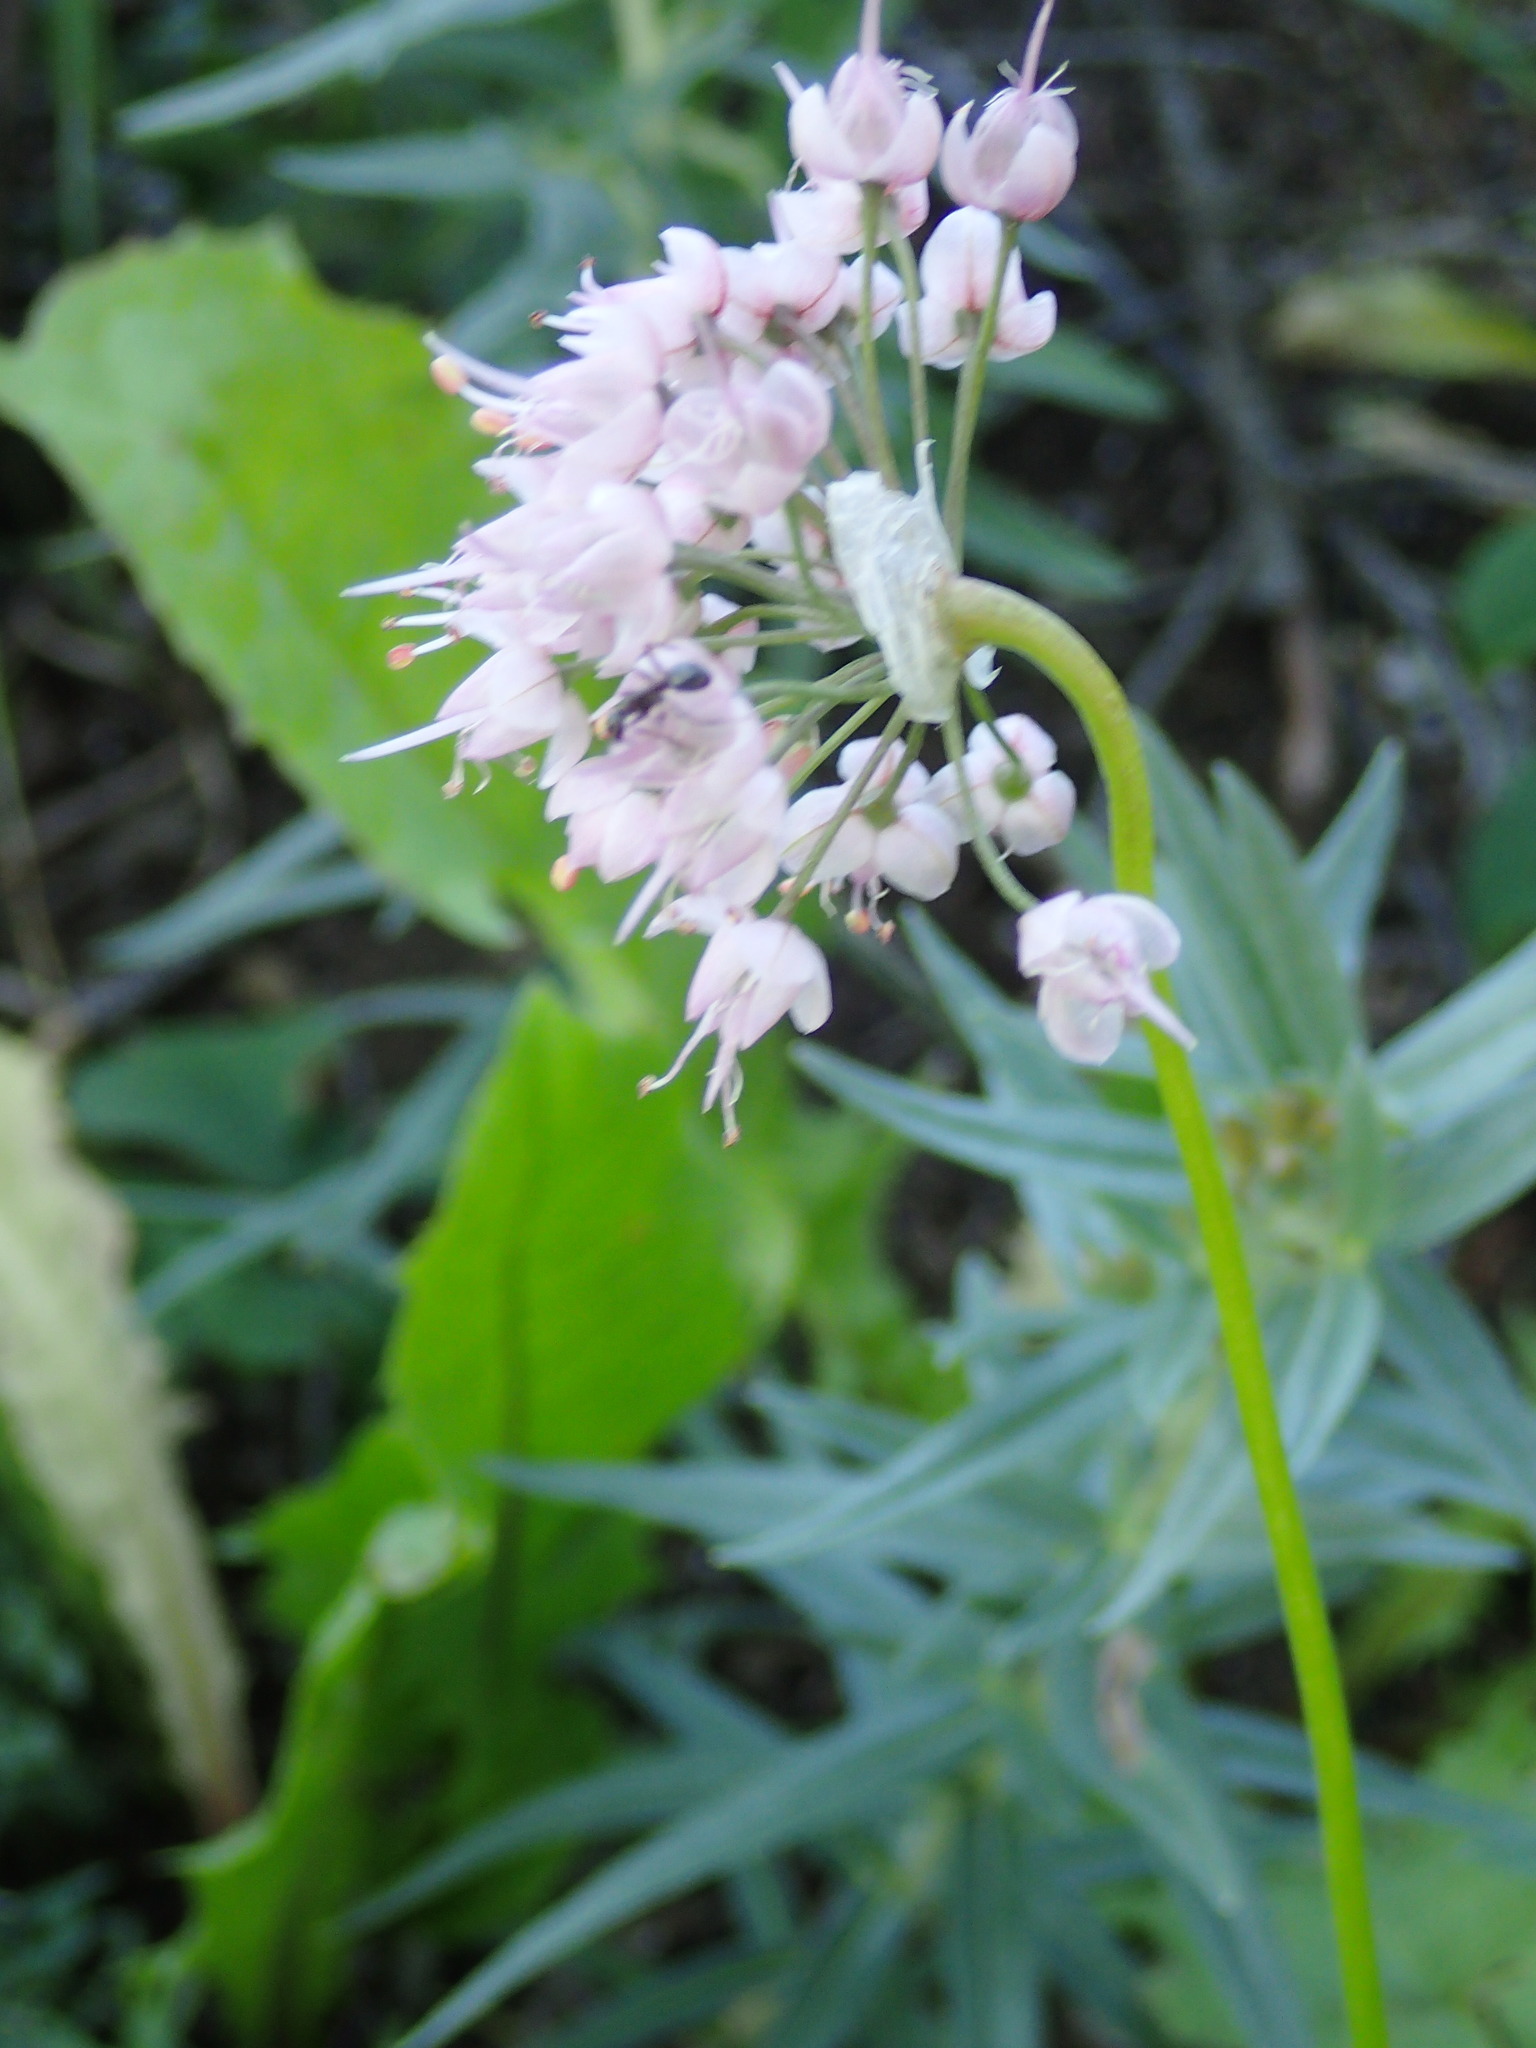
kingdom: Plantae
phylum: Tracheophyta
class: Liliopsida
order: Asparagales
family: Amaryllidaceae
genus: Allium
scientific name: Allium cernuum
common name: Nodding onion
